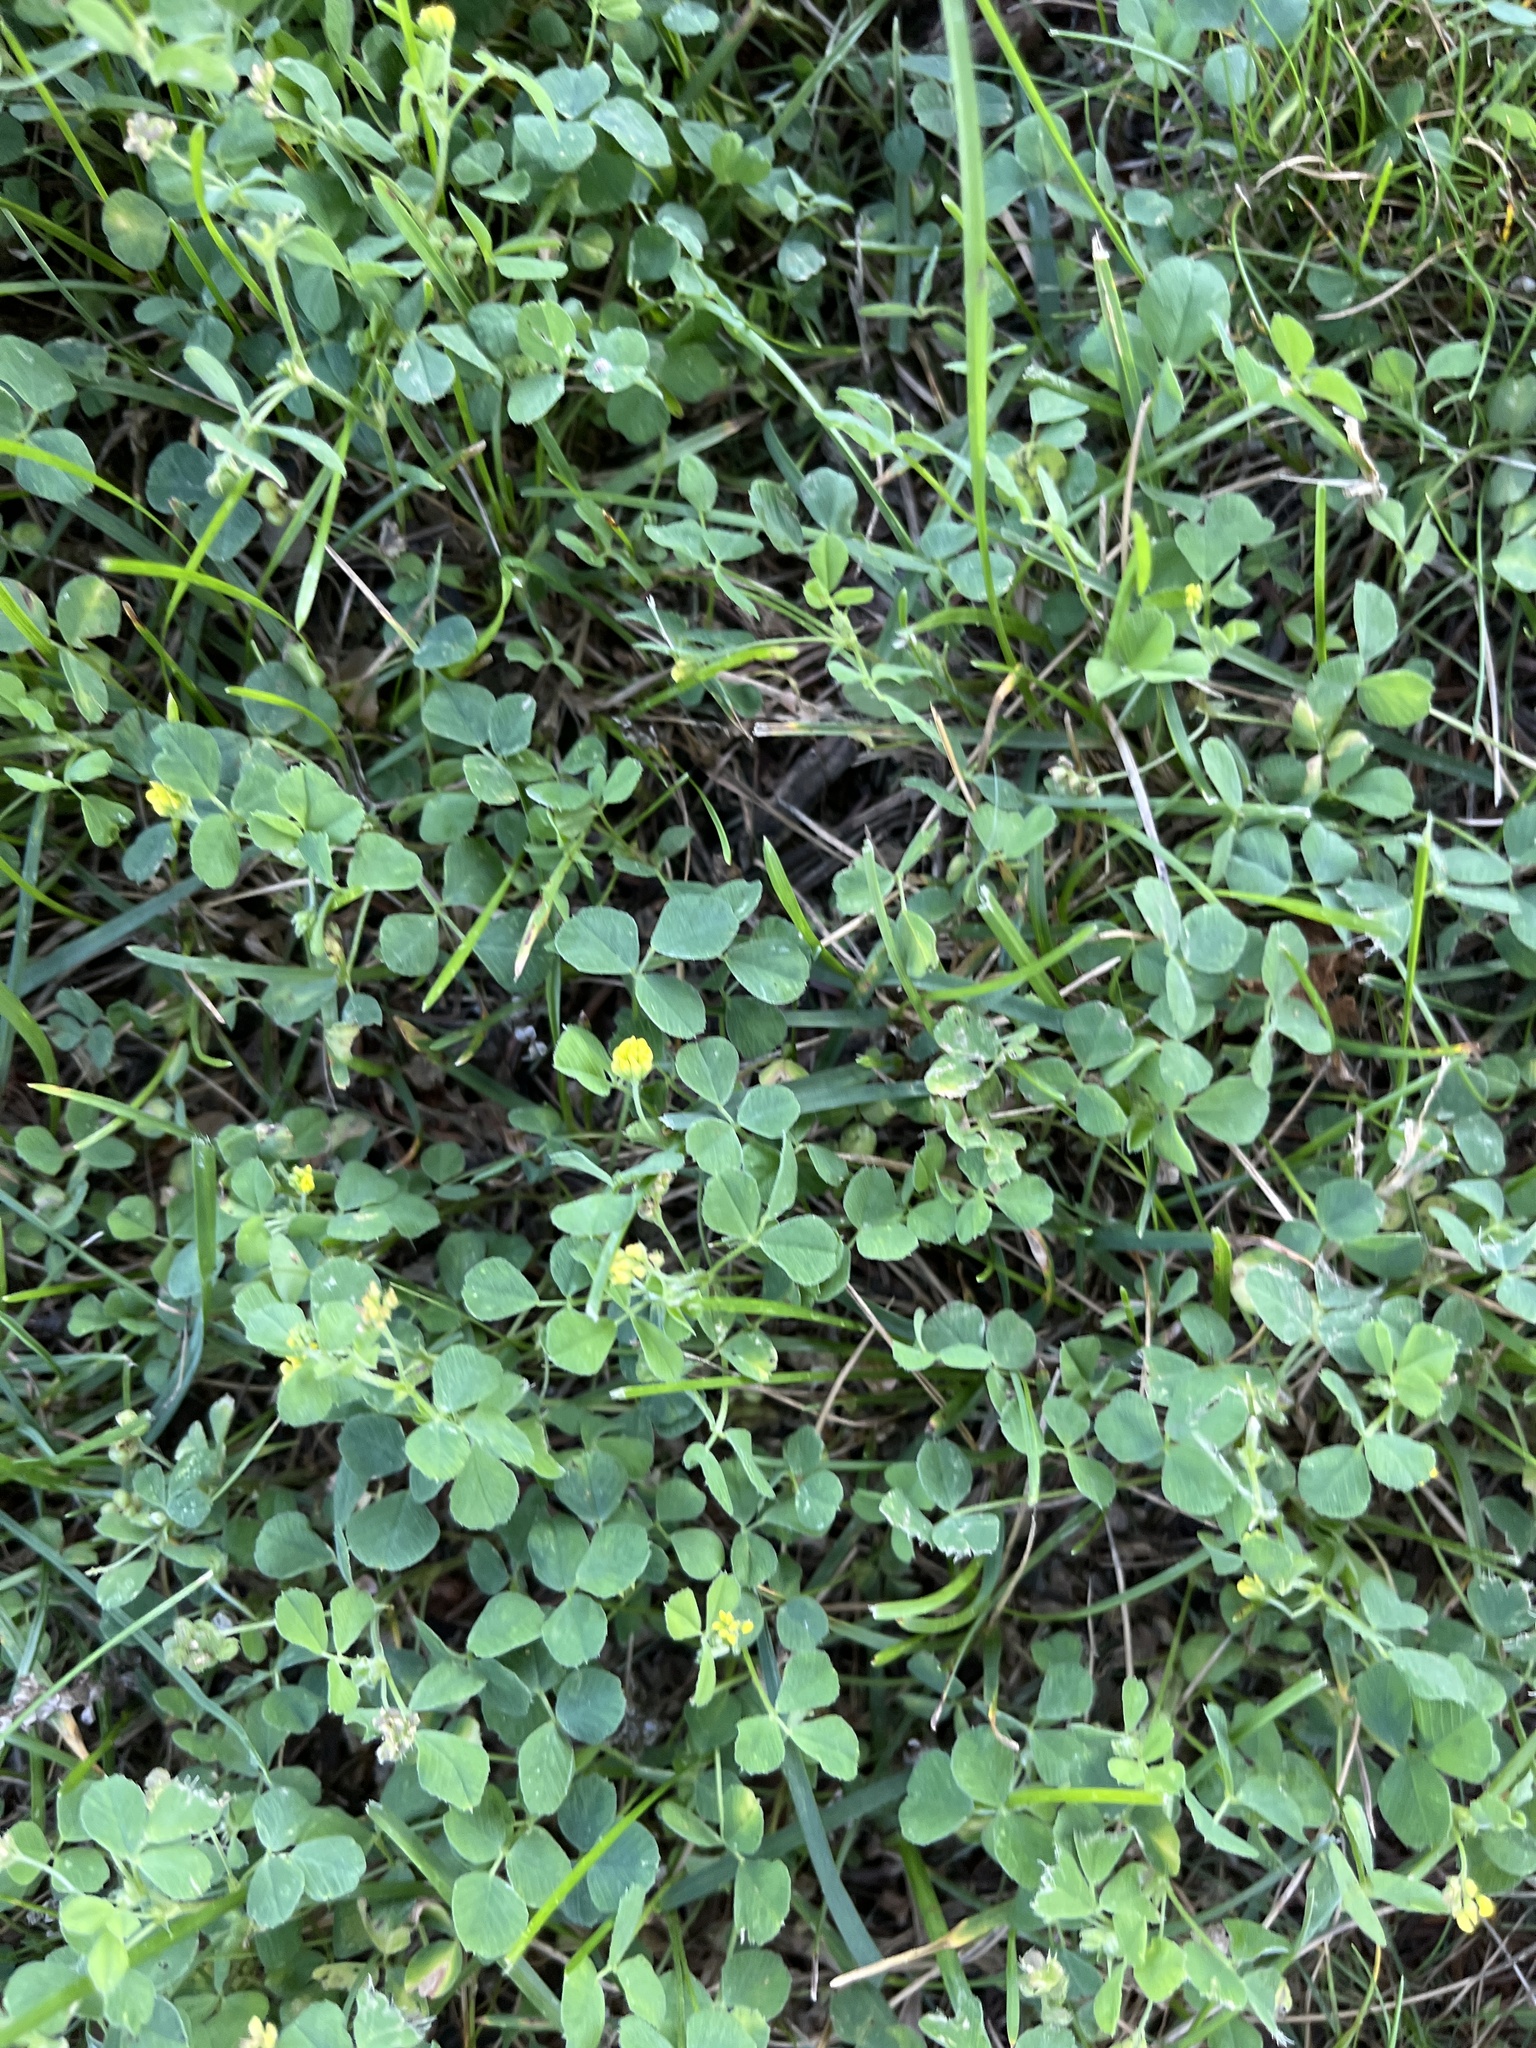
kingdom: Plantae
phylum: Tracheophyta
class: Magnoliopsida
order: Fabales
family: Fabaceae
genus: Medicago
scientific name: Medicago lupulina
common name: Black medick
